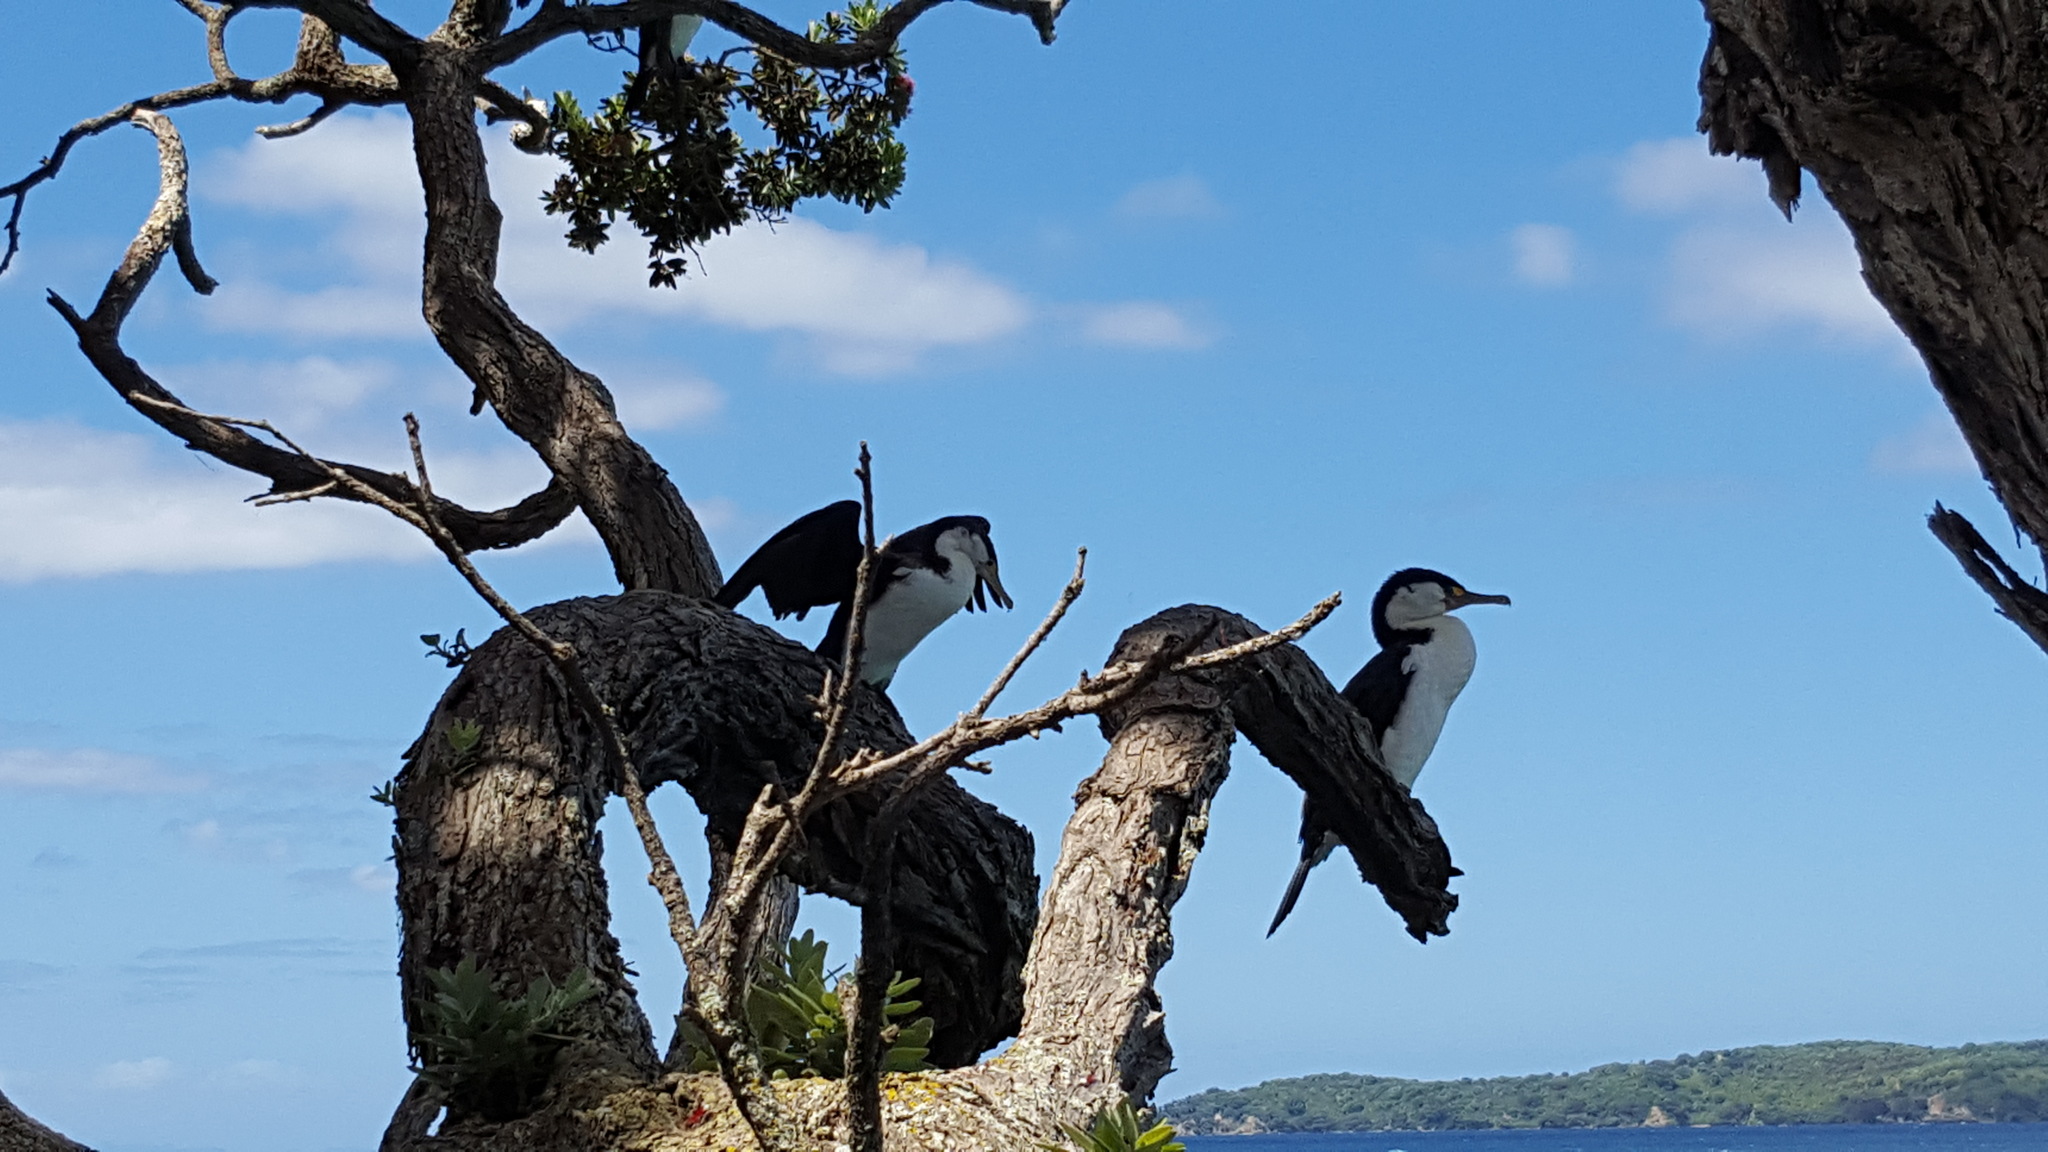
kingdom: Animalia
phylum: Chordata
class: Aves
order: Suliformes
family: Phalacrocoracidae
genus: Phalacrocorax
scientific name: Phalacrocorax varius
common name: Pied cormorant
